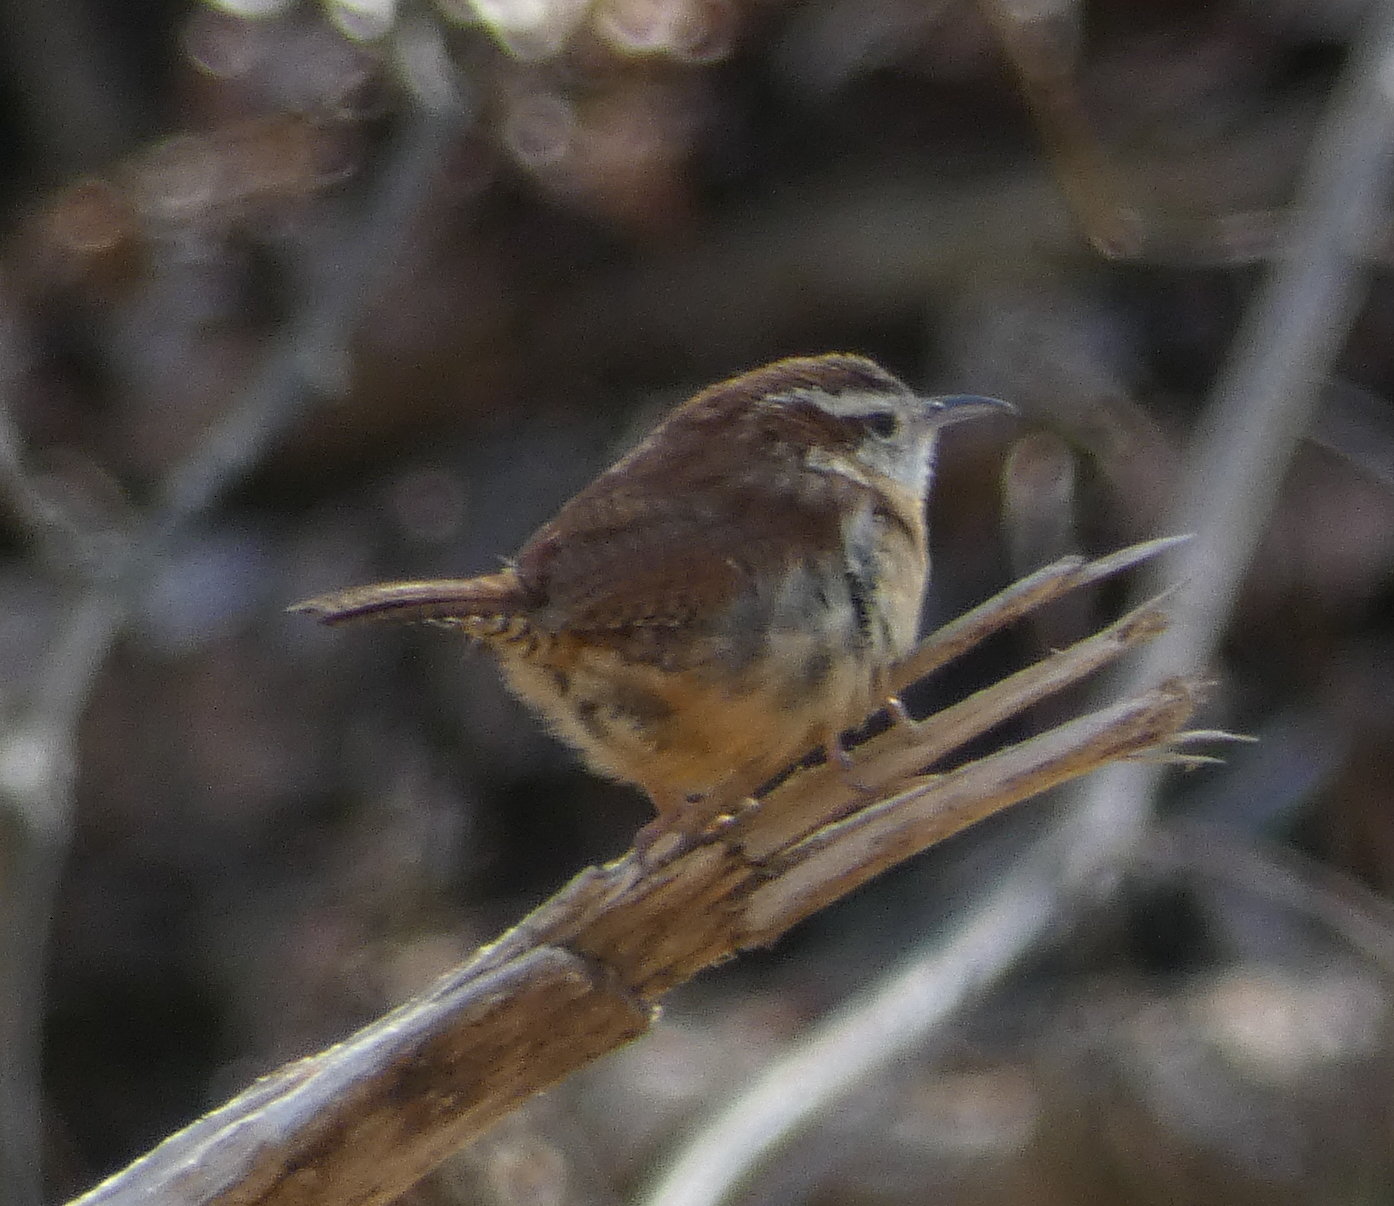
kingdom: Animalia
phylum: Chordata
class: Aves
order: Passeriformes
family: Troglodytidae
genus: Thryothorus
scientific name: Thryothorus ludovicianus
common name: Carolina wren
